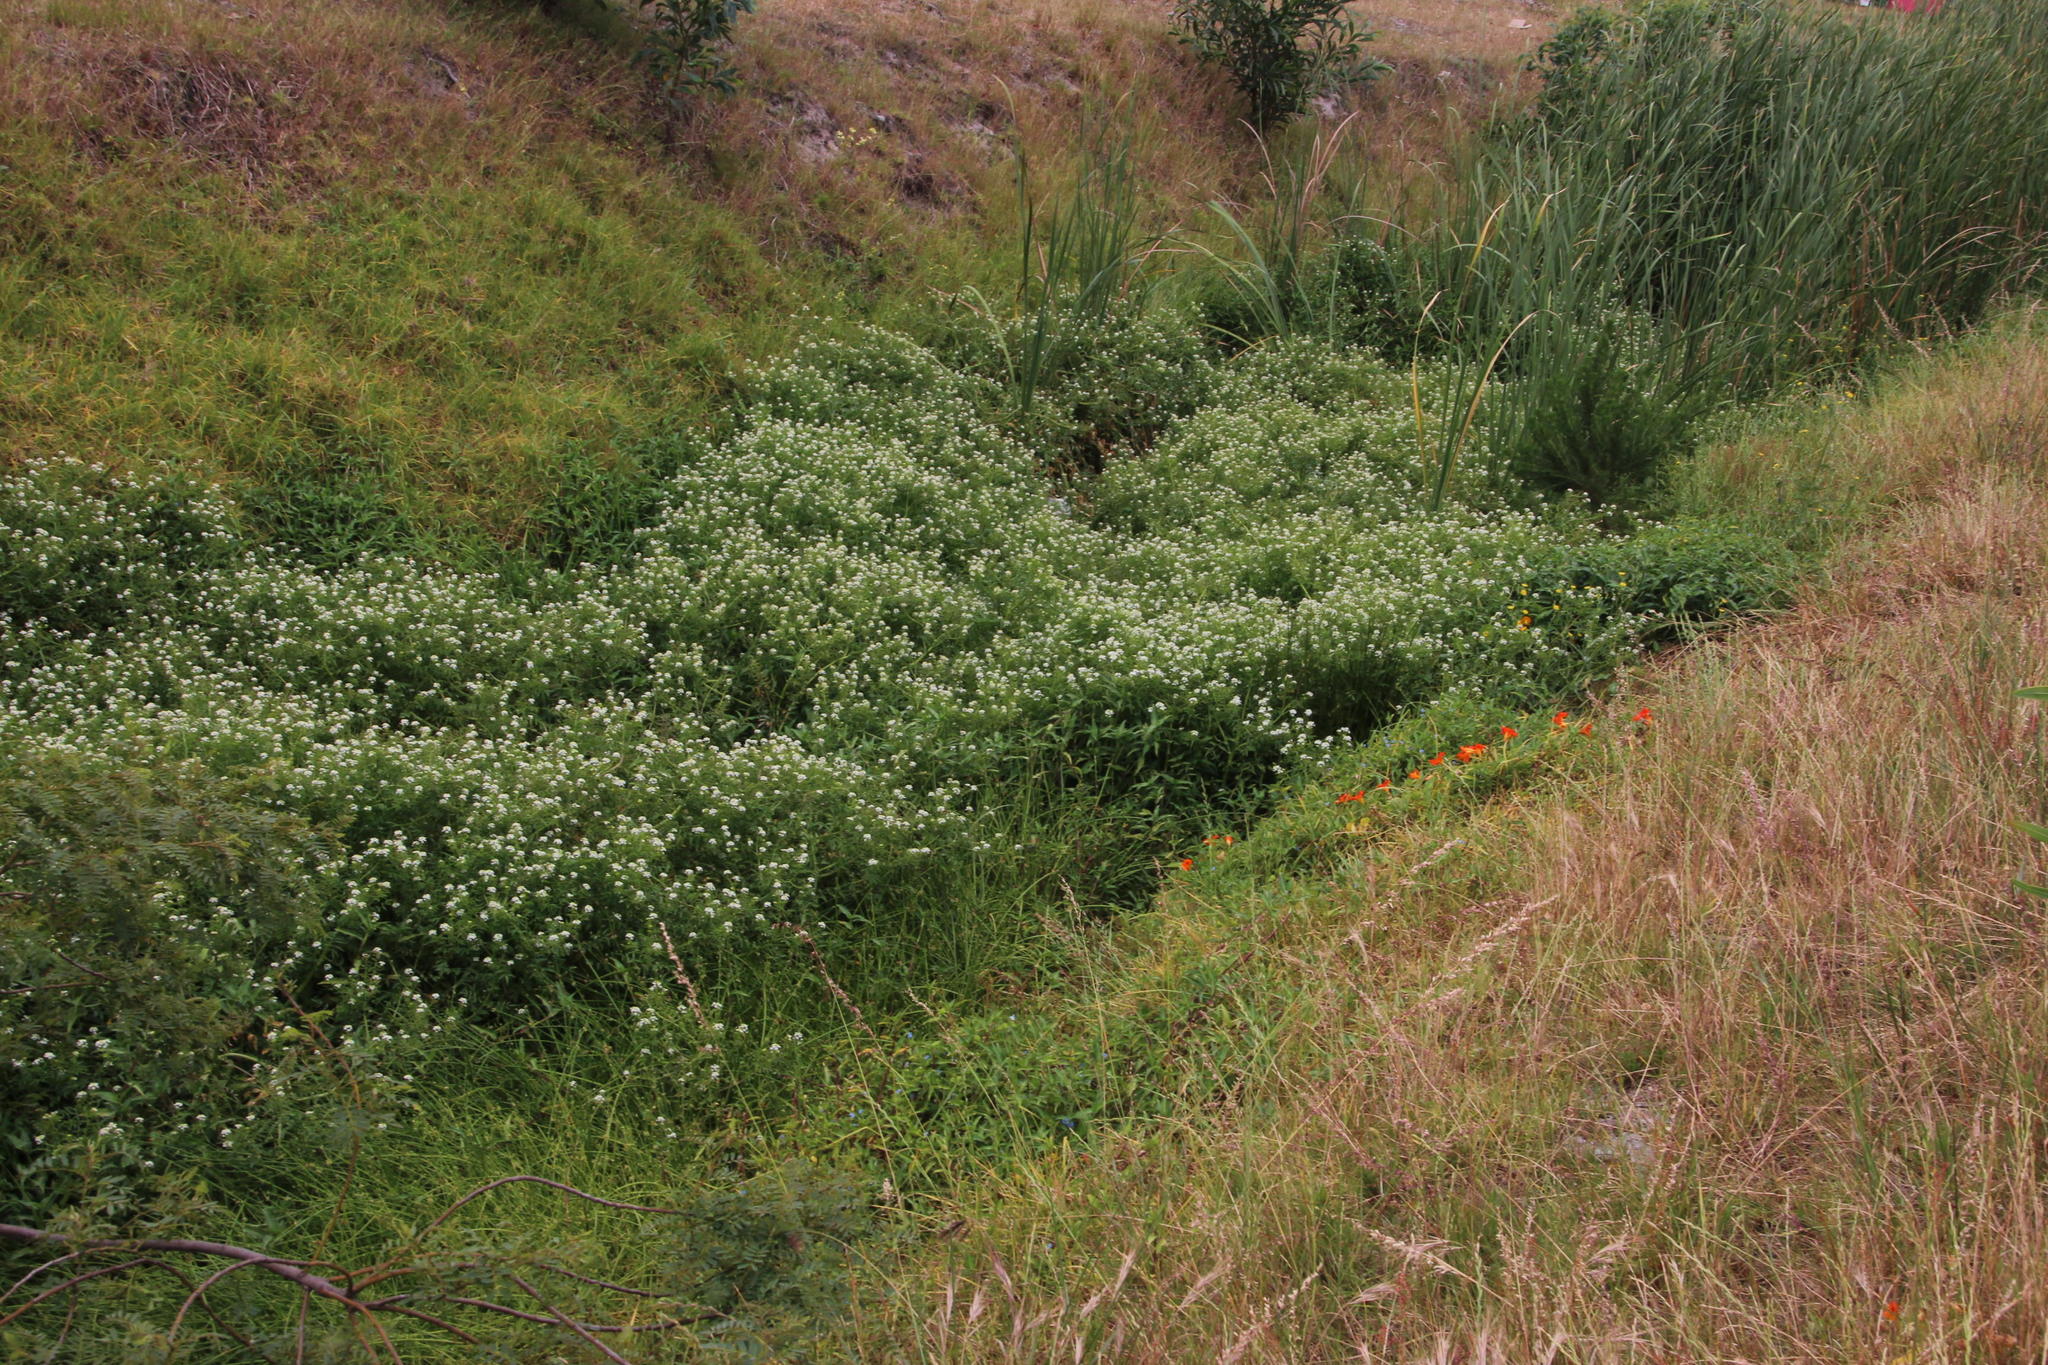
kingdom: Plantae
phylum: Tracheophyta
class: Magnoliopsida
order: Brassicales
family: Brassicaceae
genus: Nasturtium
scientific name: Nasturtium officinale
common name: Watercress
